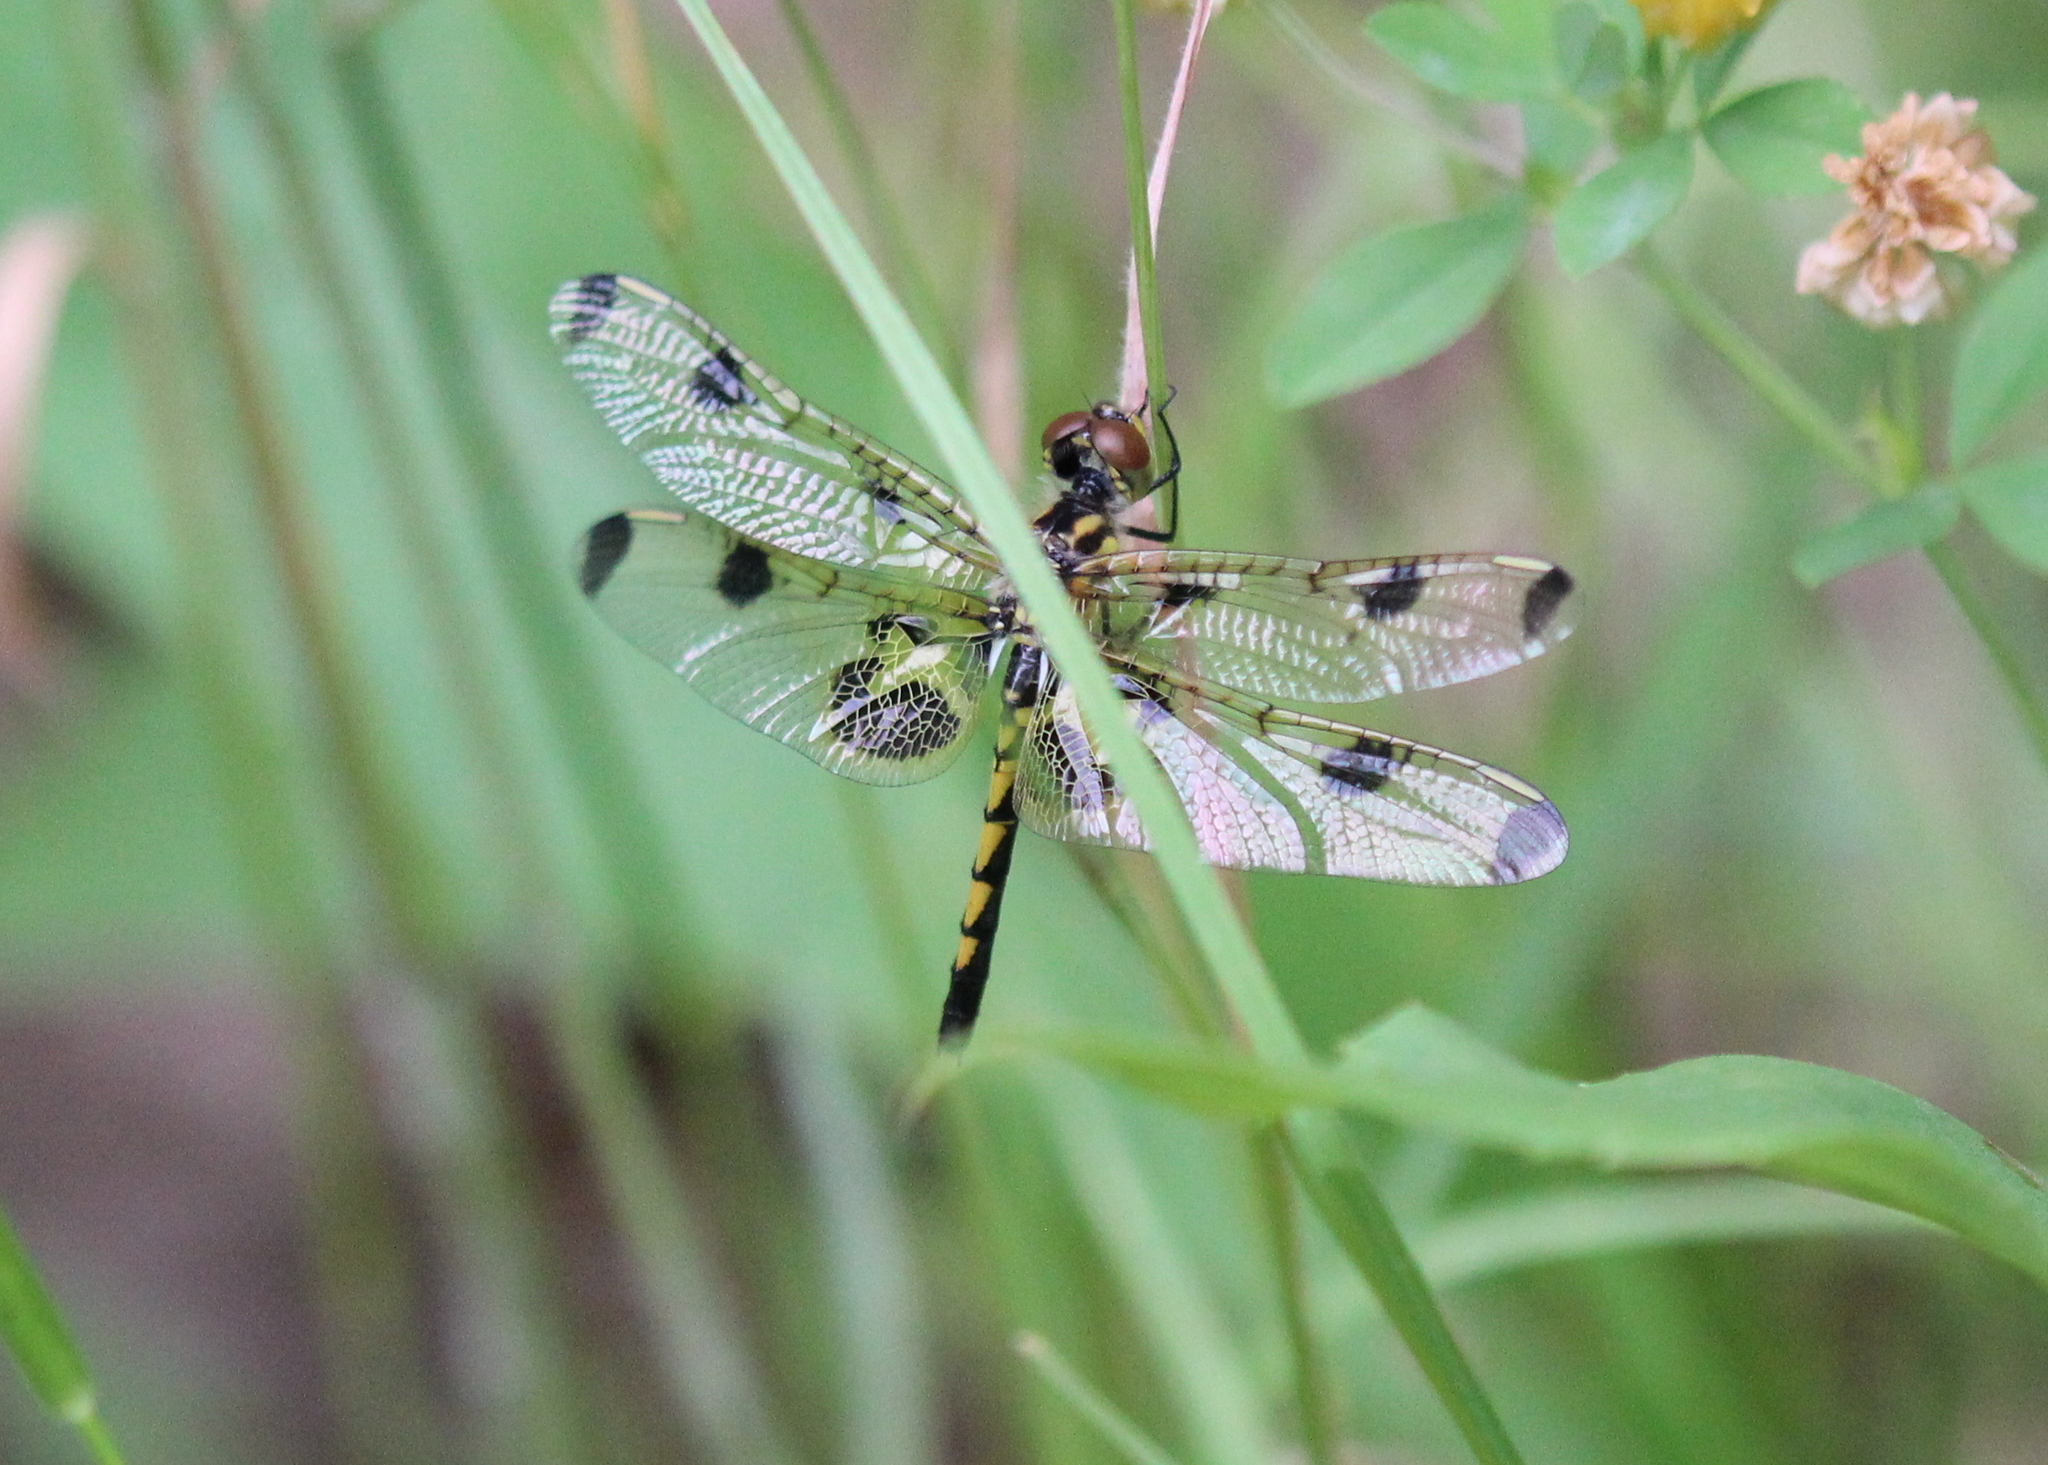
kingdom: Animalia
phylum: Arthropoda
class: Insecta
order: Odonata
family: Libellulidae
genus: Celithemis
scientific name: Celithemis elisa
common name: Calico pennant
